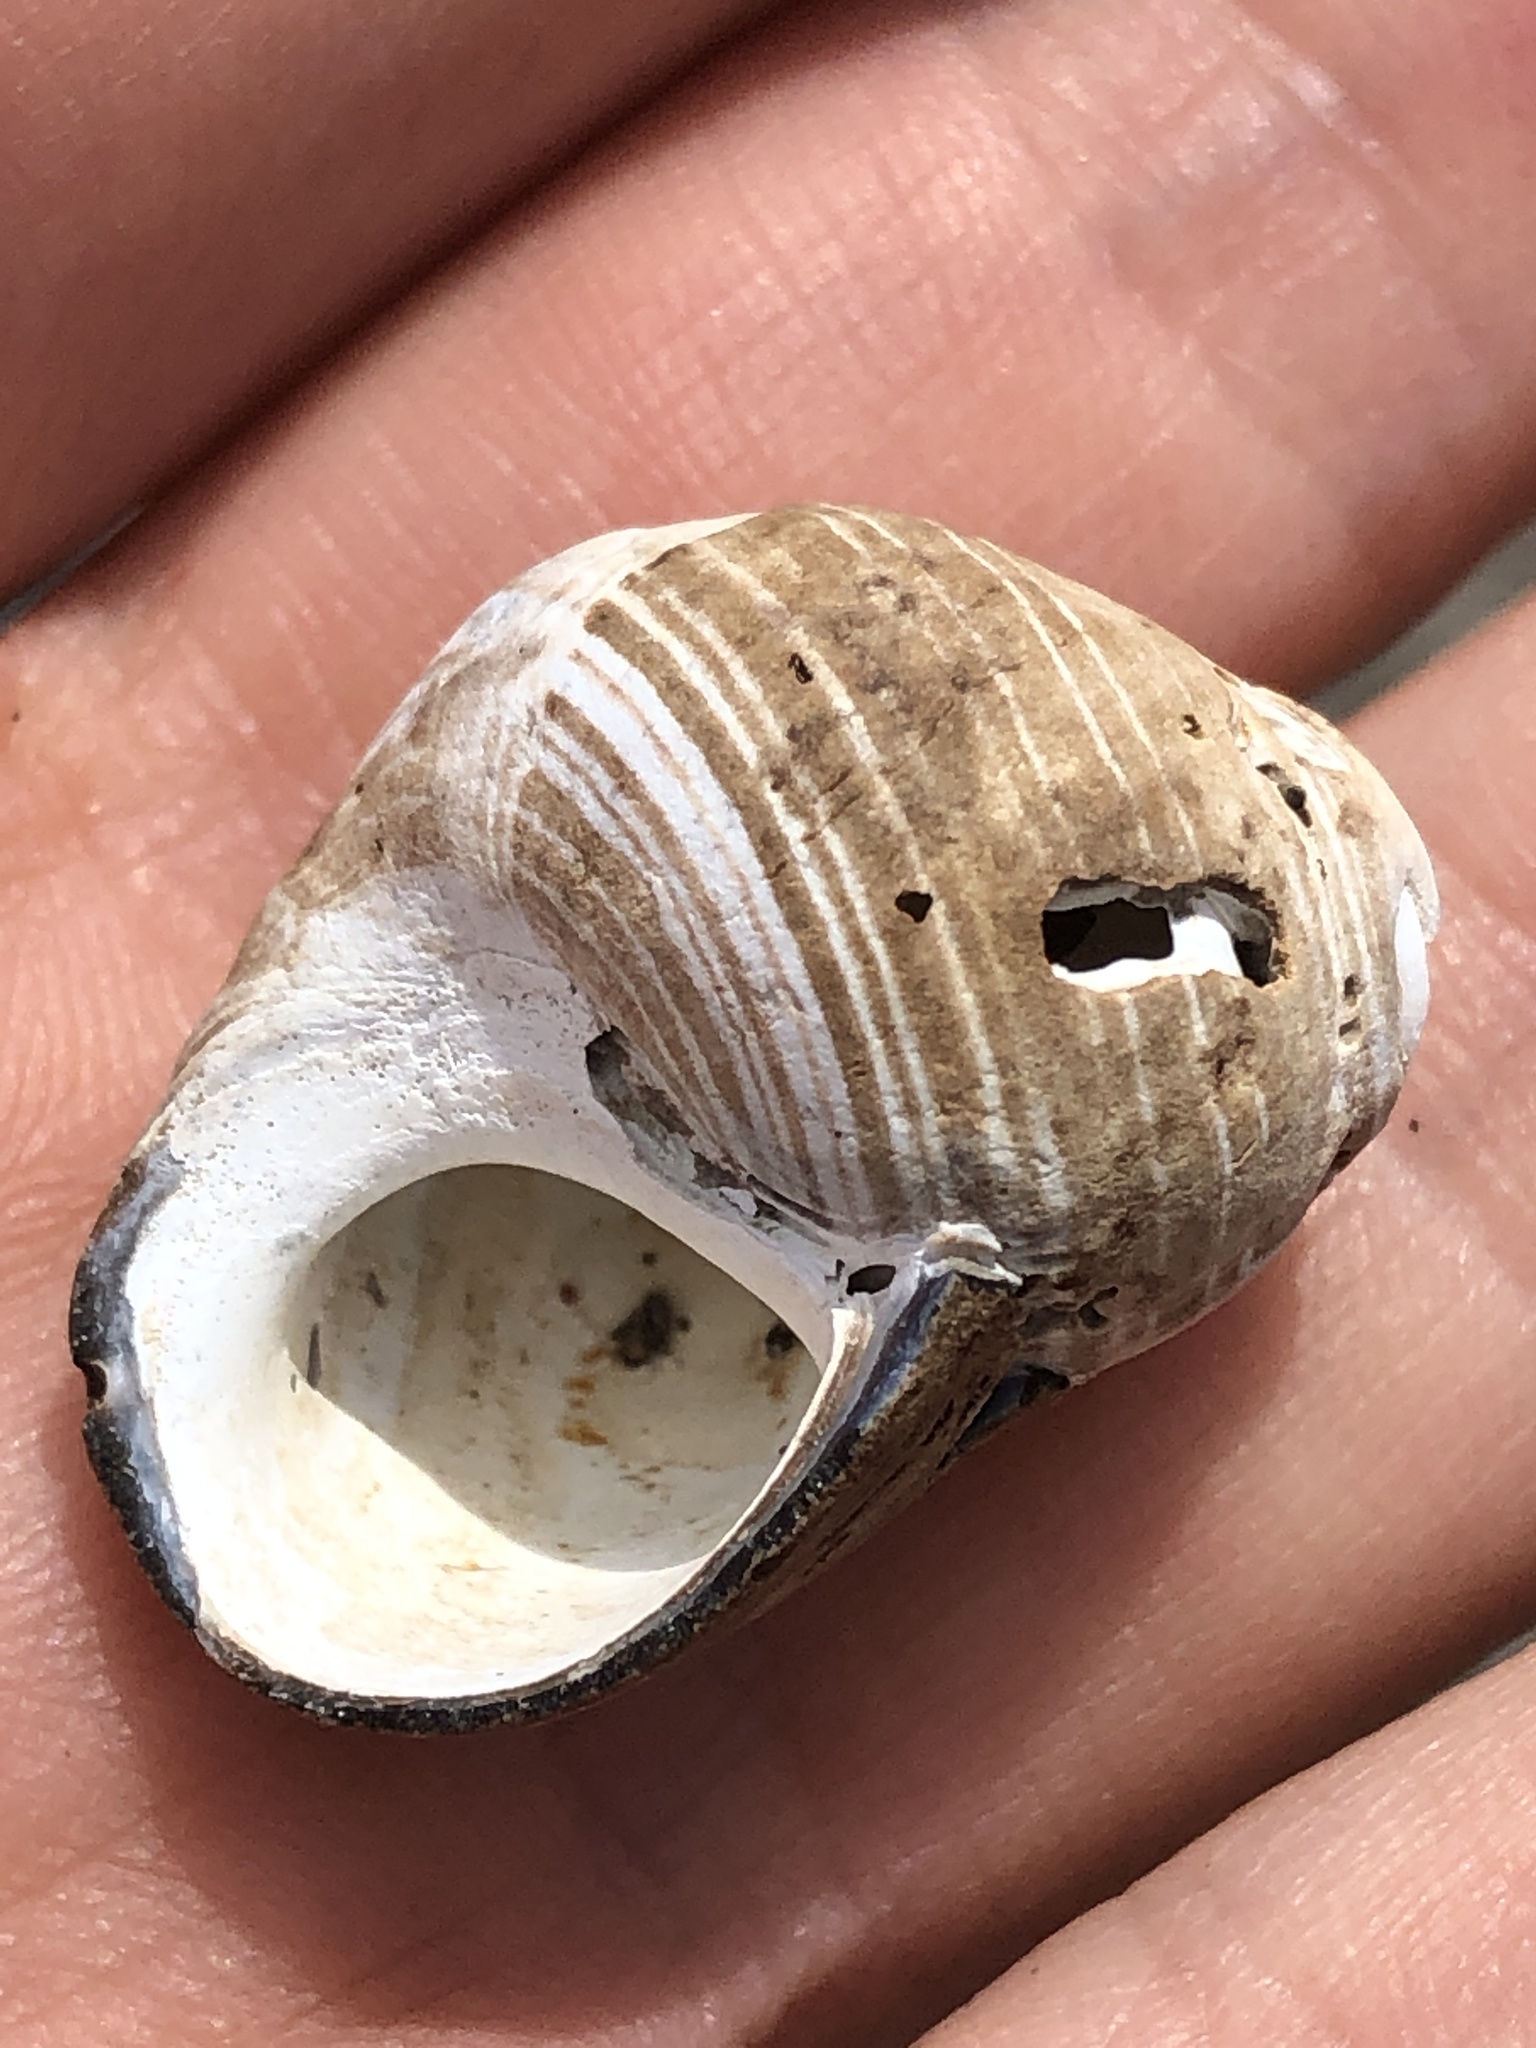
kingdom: Animalia
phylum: Mollusca
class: Gastropoda
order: Littorinimorpha
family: Littorinidae
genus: Littorina
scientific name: Littorina littorea
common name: Common periwinkle
